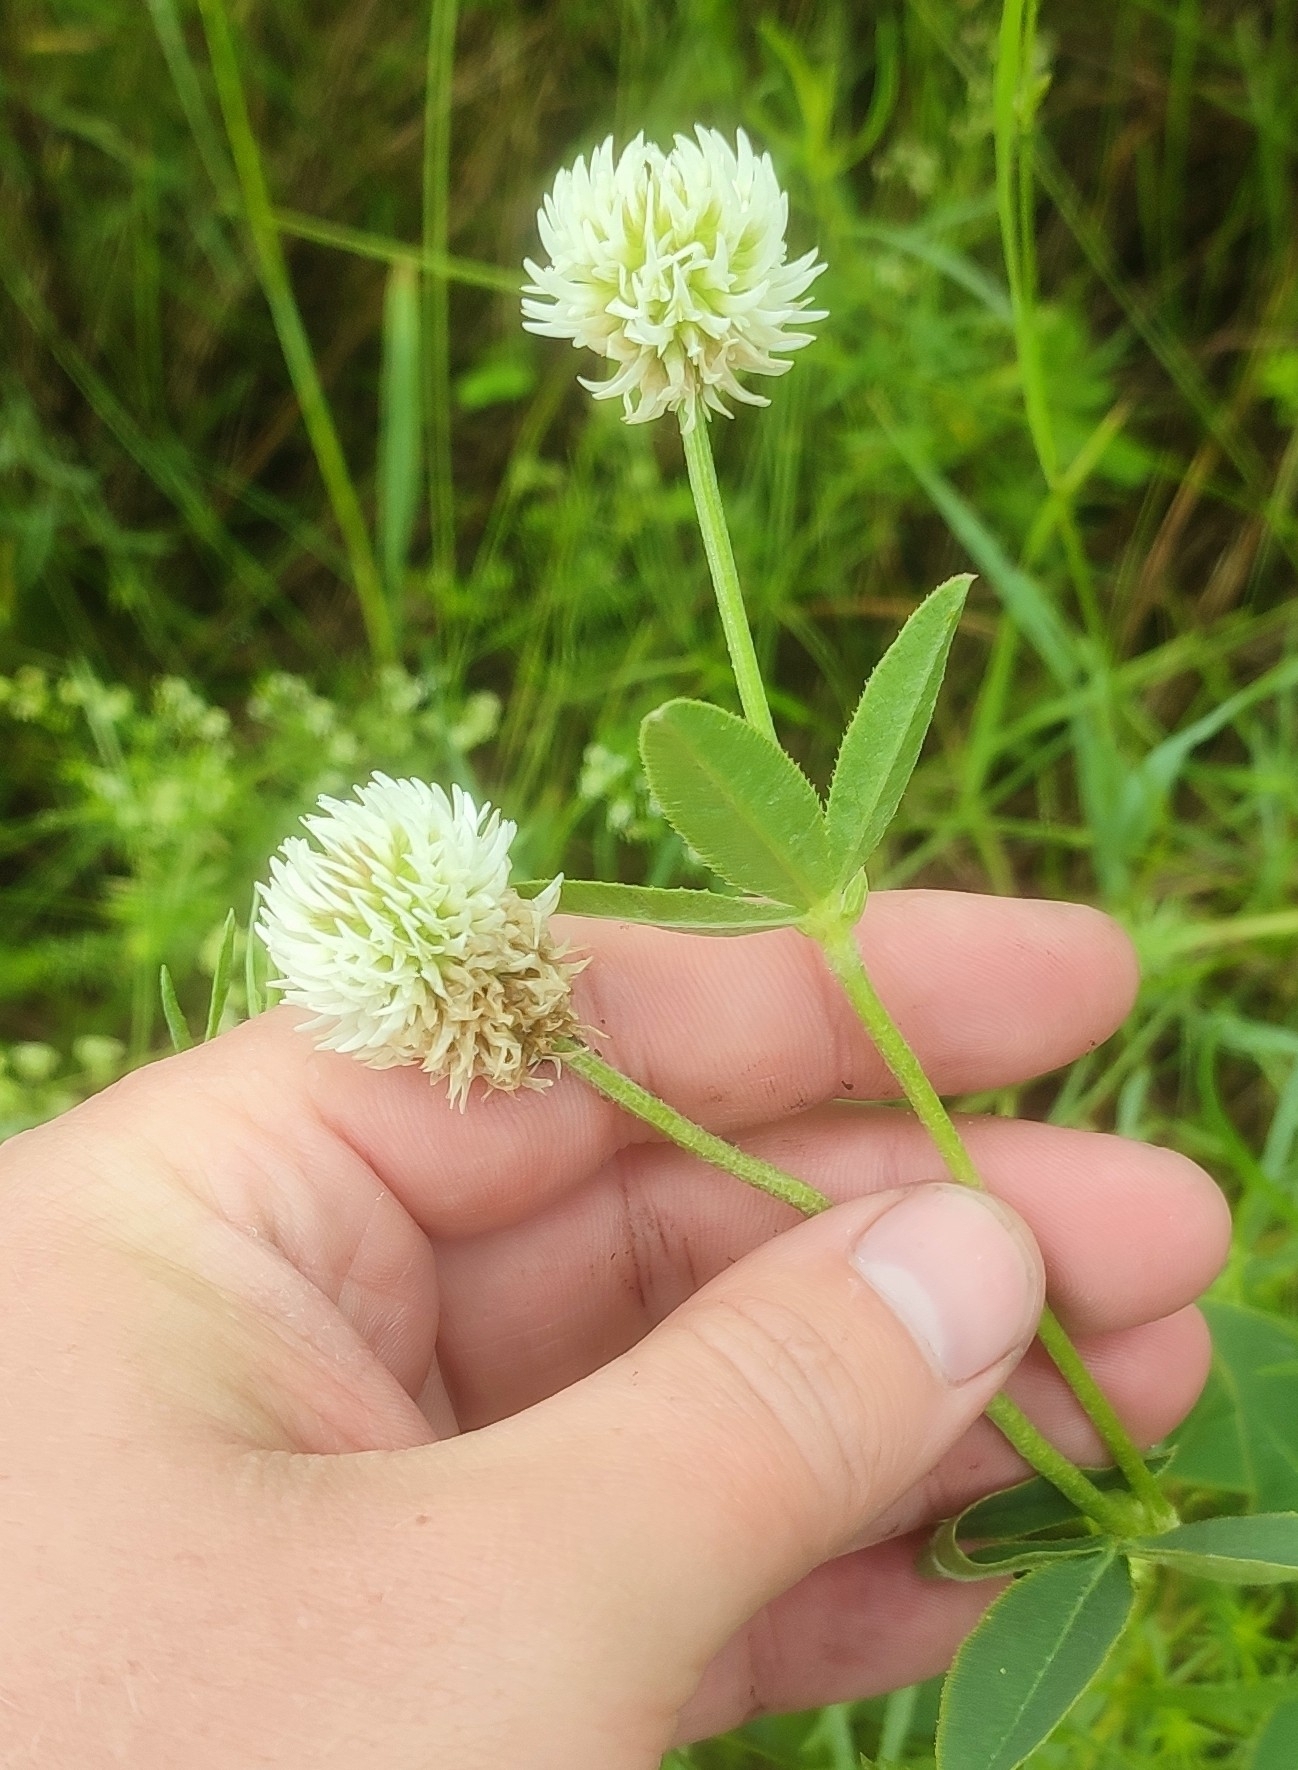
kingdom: Plantae
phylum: Tracheophyta
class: Magnoliopsida
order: Fabales
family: Fabaceae
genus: Trifolium
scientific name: Trifolium montanum
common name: Mountain clover
